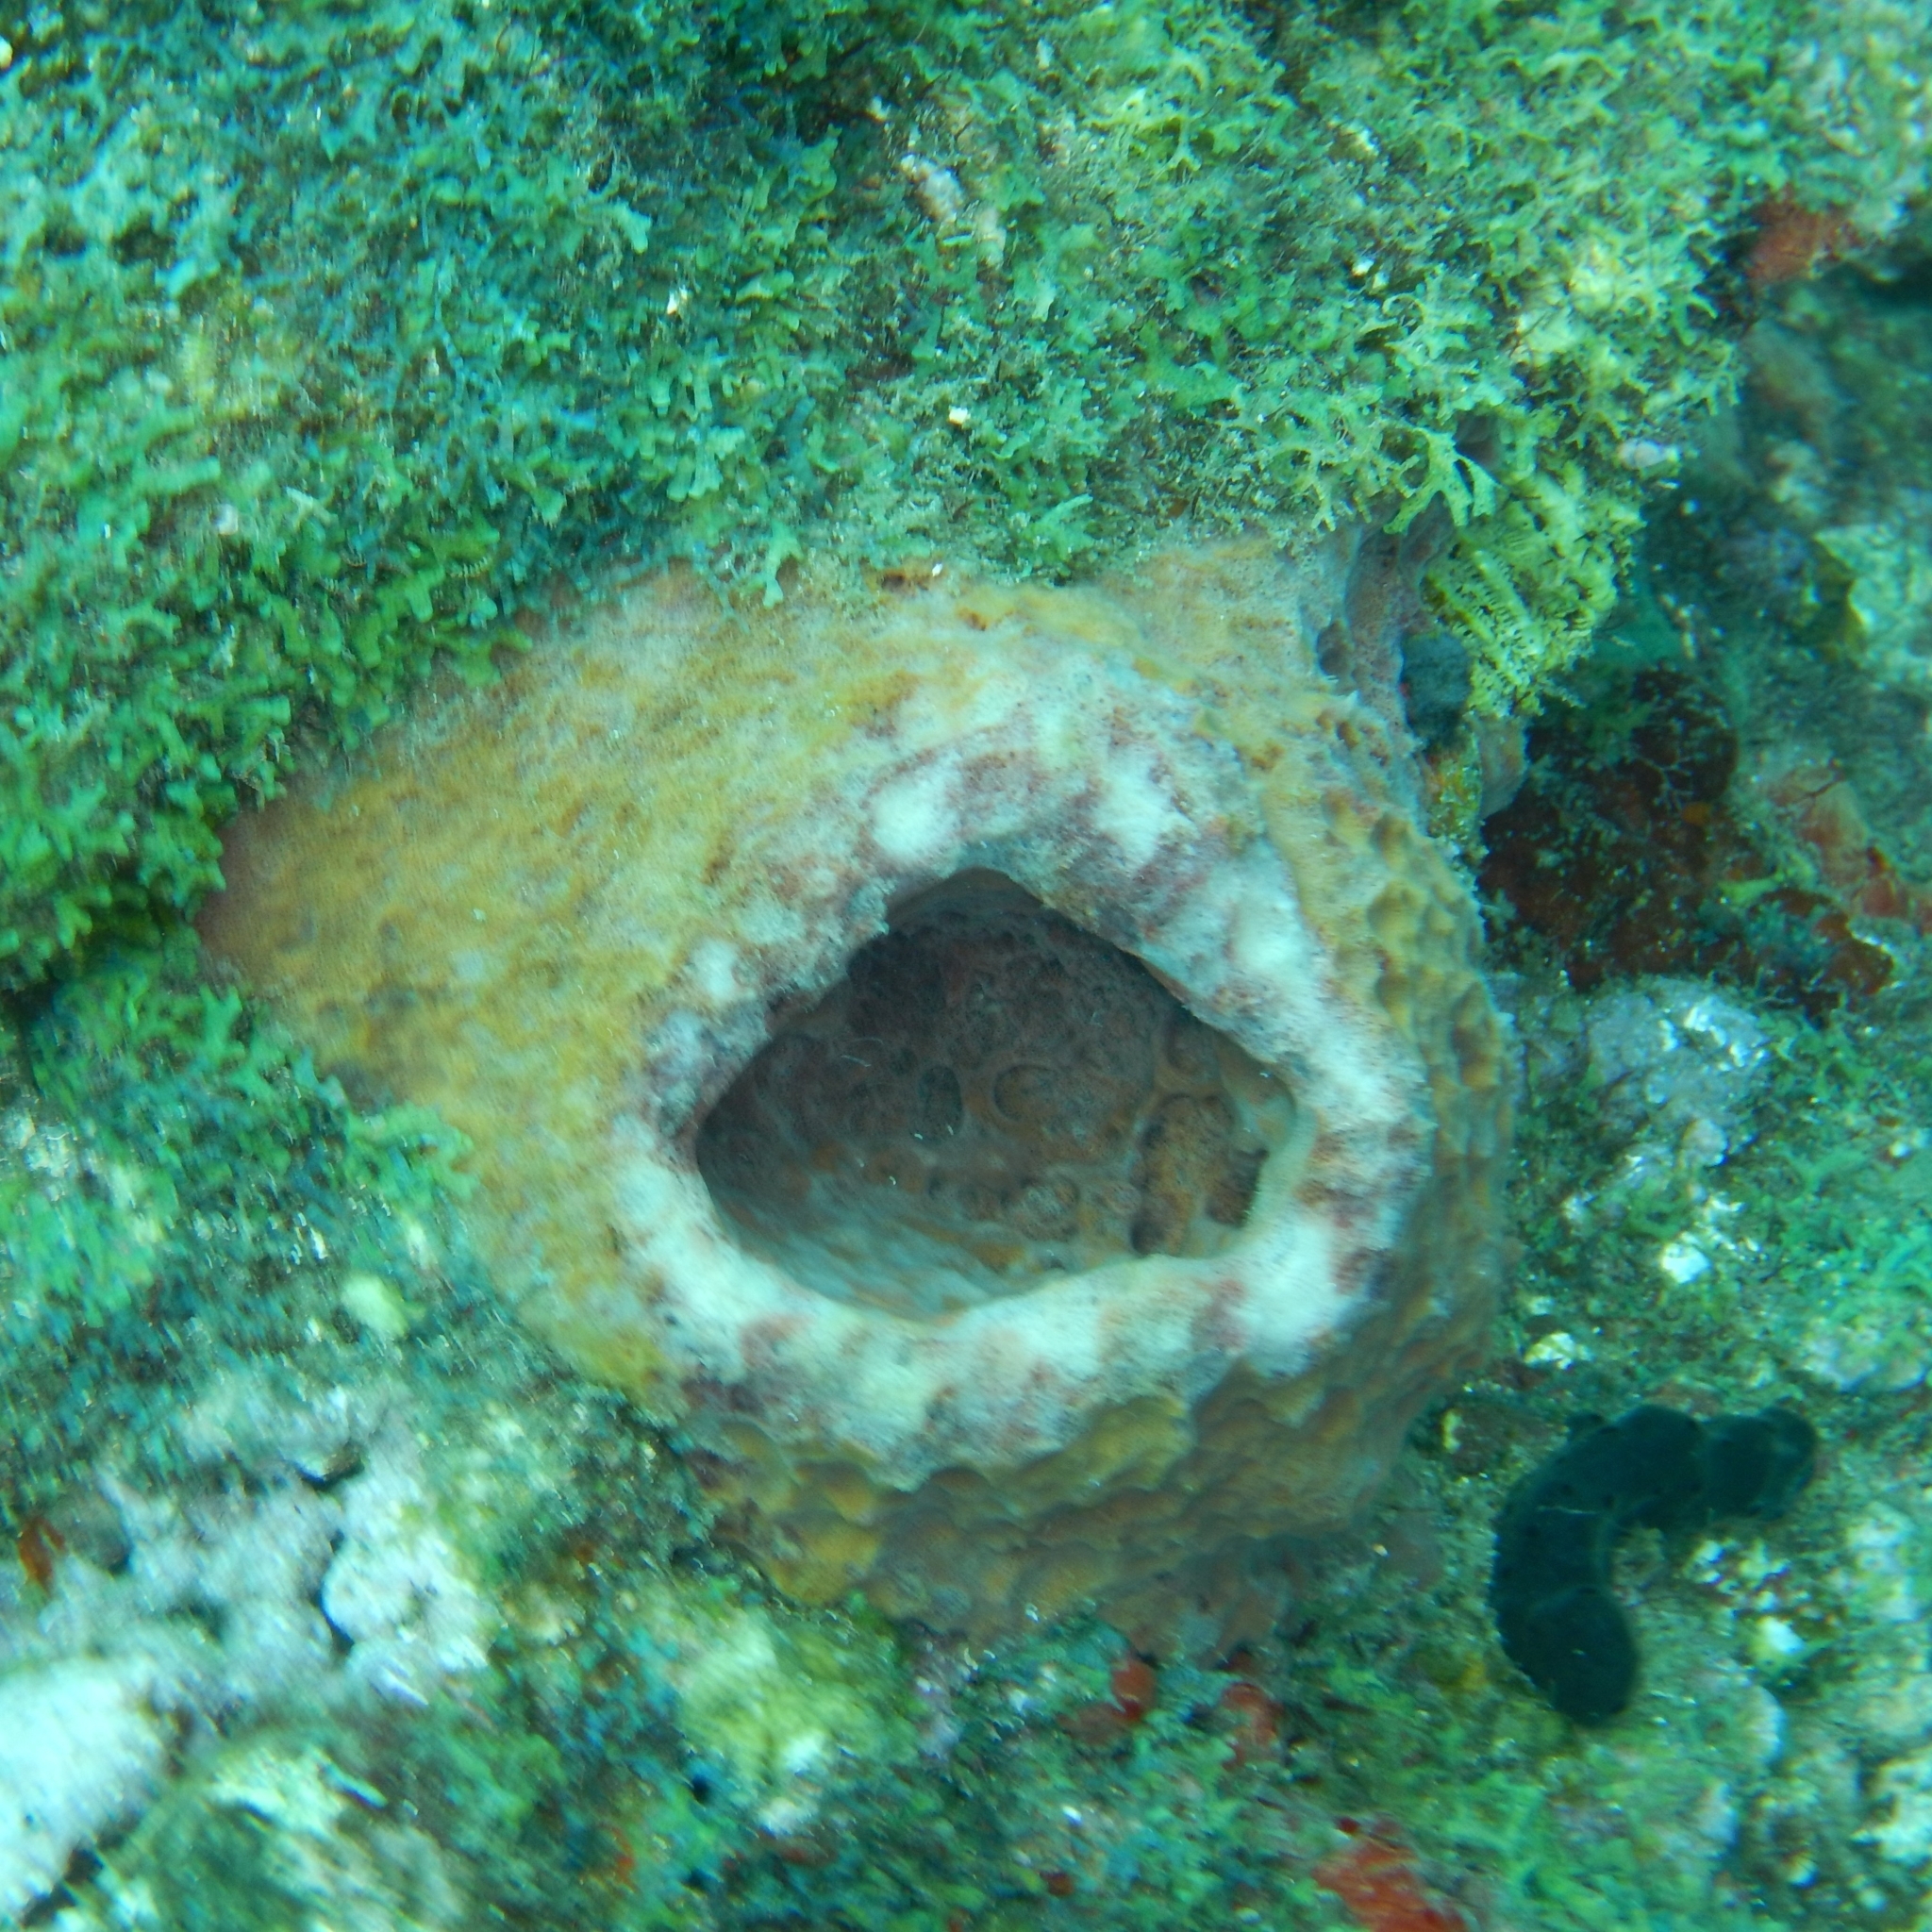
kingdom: Animalia
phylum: Porifera
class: Demospongiae
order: Haplosclerida
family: Petrosiidae
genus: Xestospongia
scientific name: Xestospongia muta
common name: Giant barrel sponge
